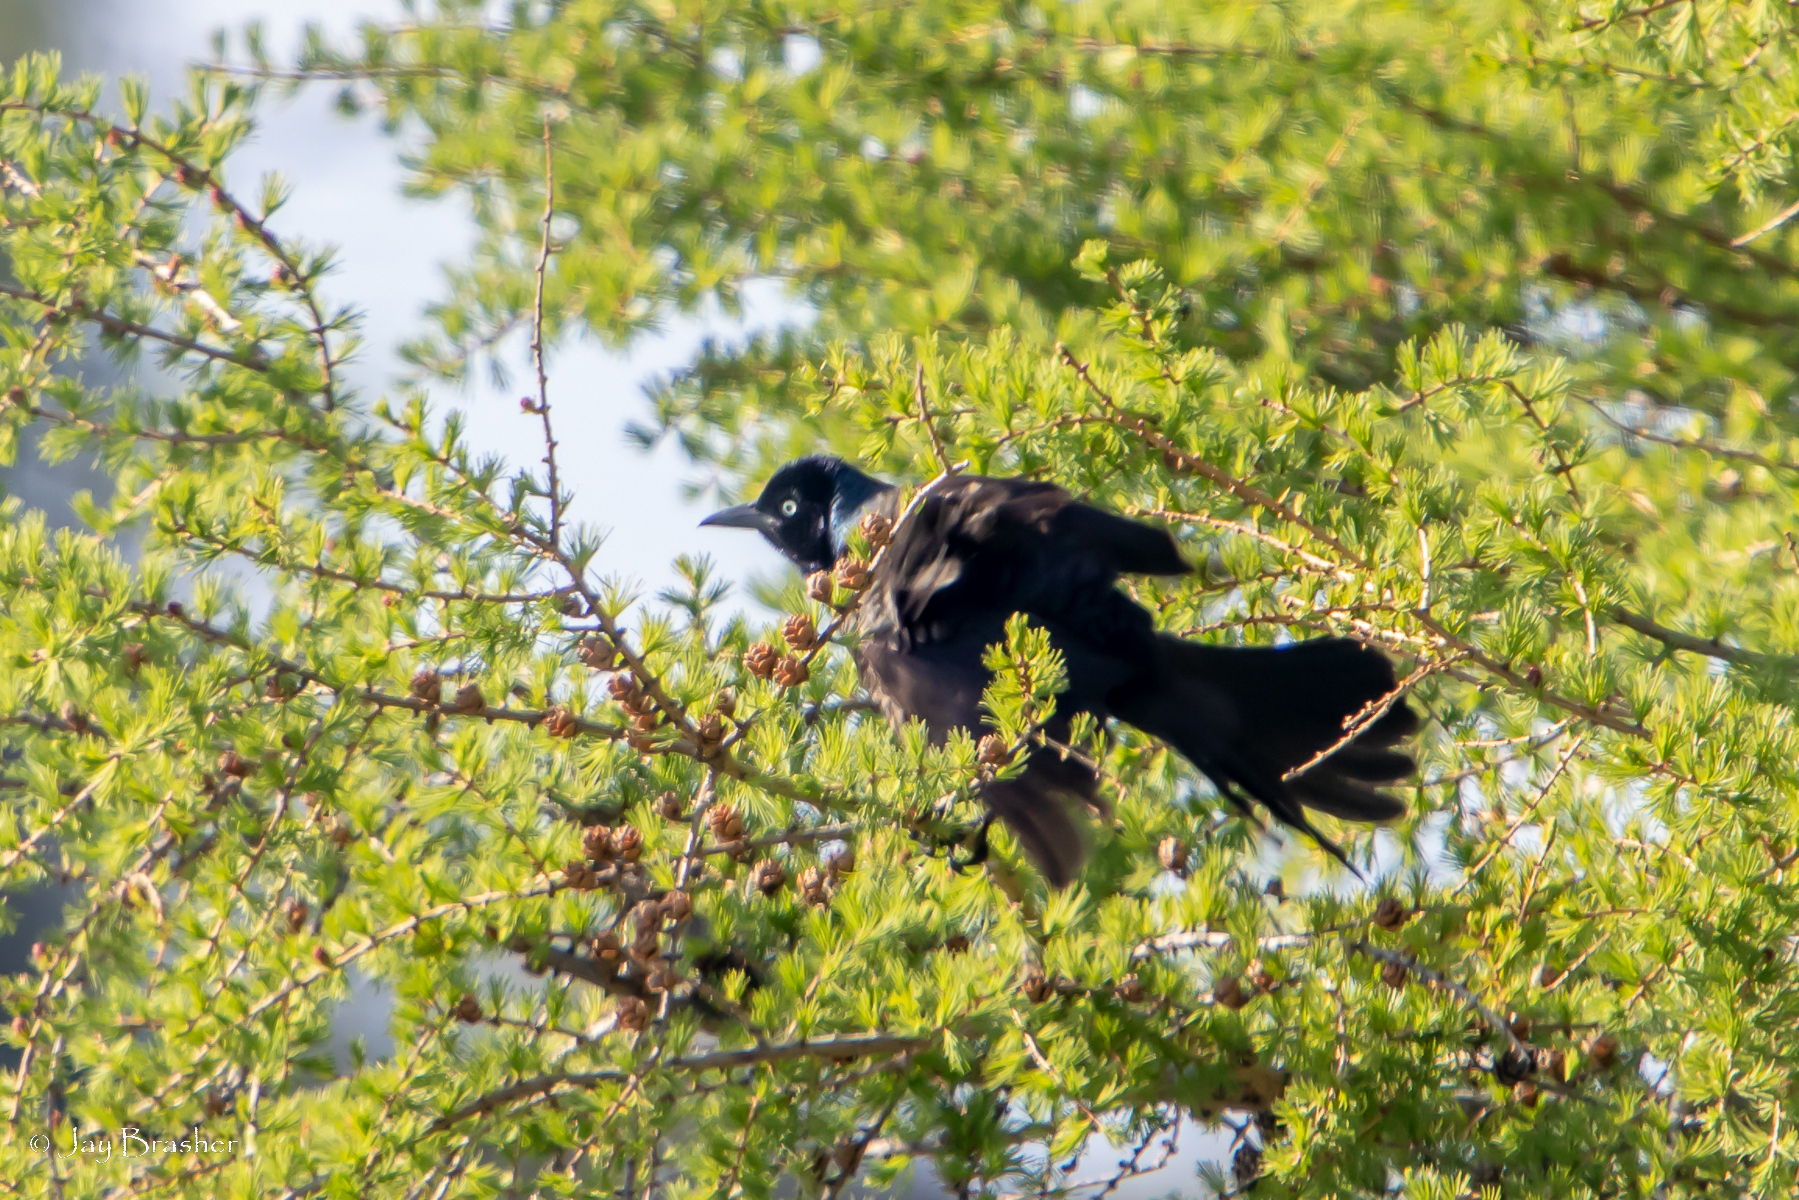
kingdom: Animalia
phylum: Chordata
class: Aves
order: Passeriformes
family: Icteridae
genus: Quiscalus
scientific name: Quiscalus quiscula
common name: Common grackle
